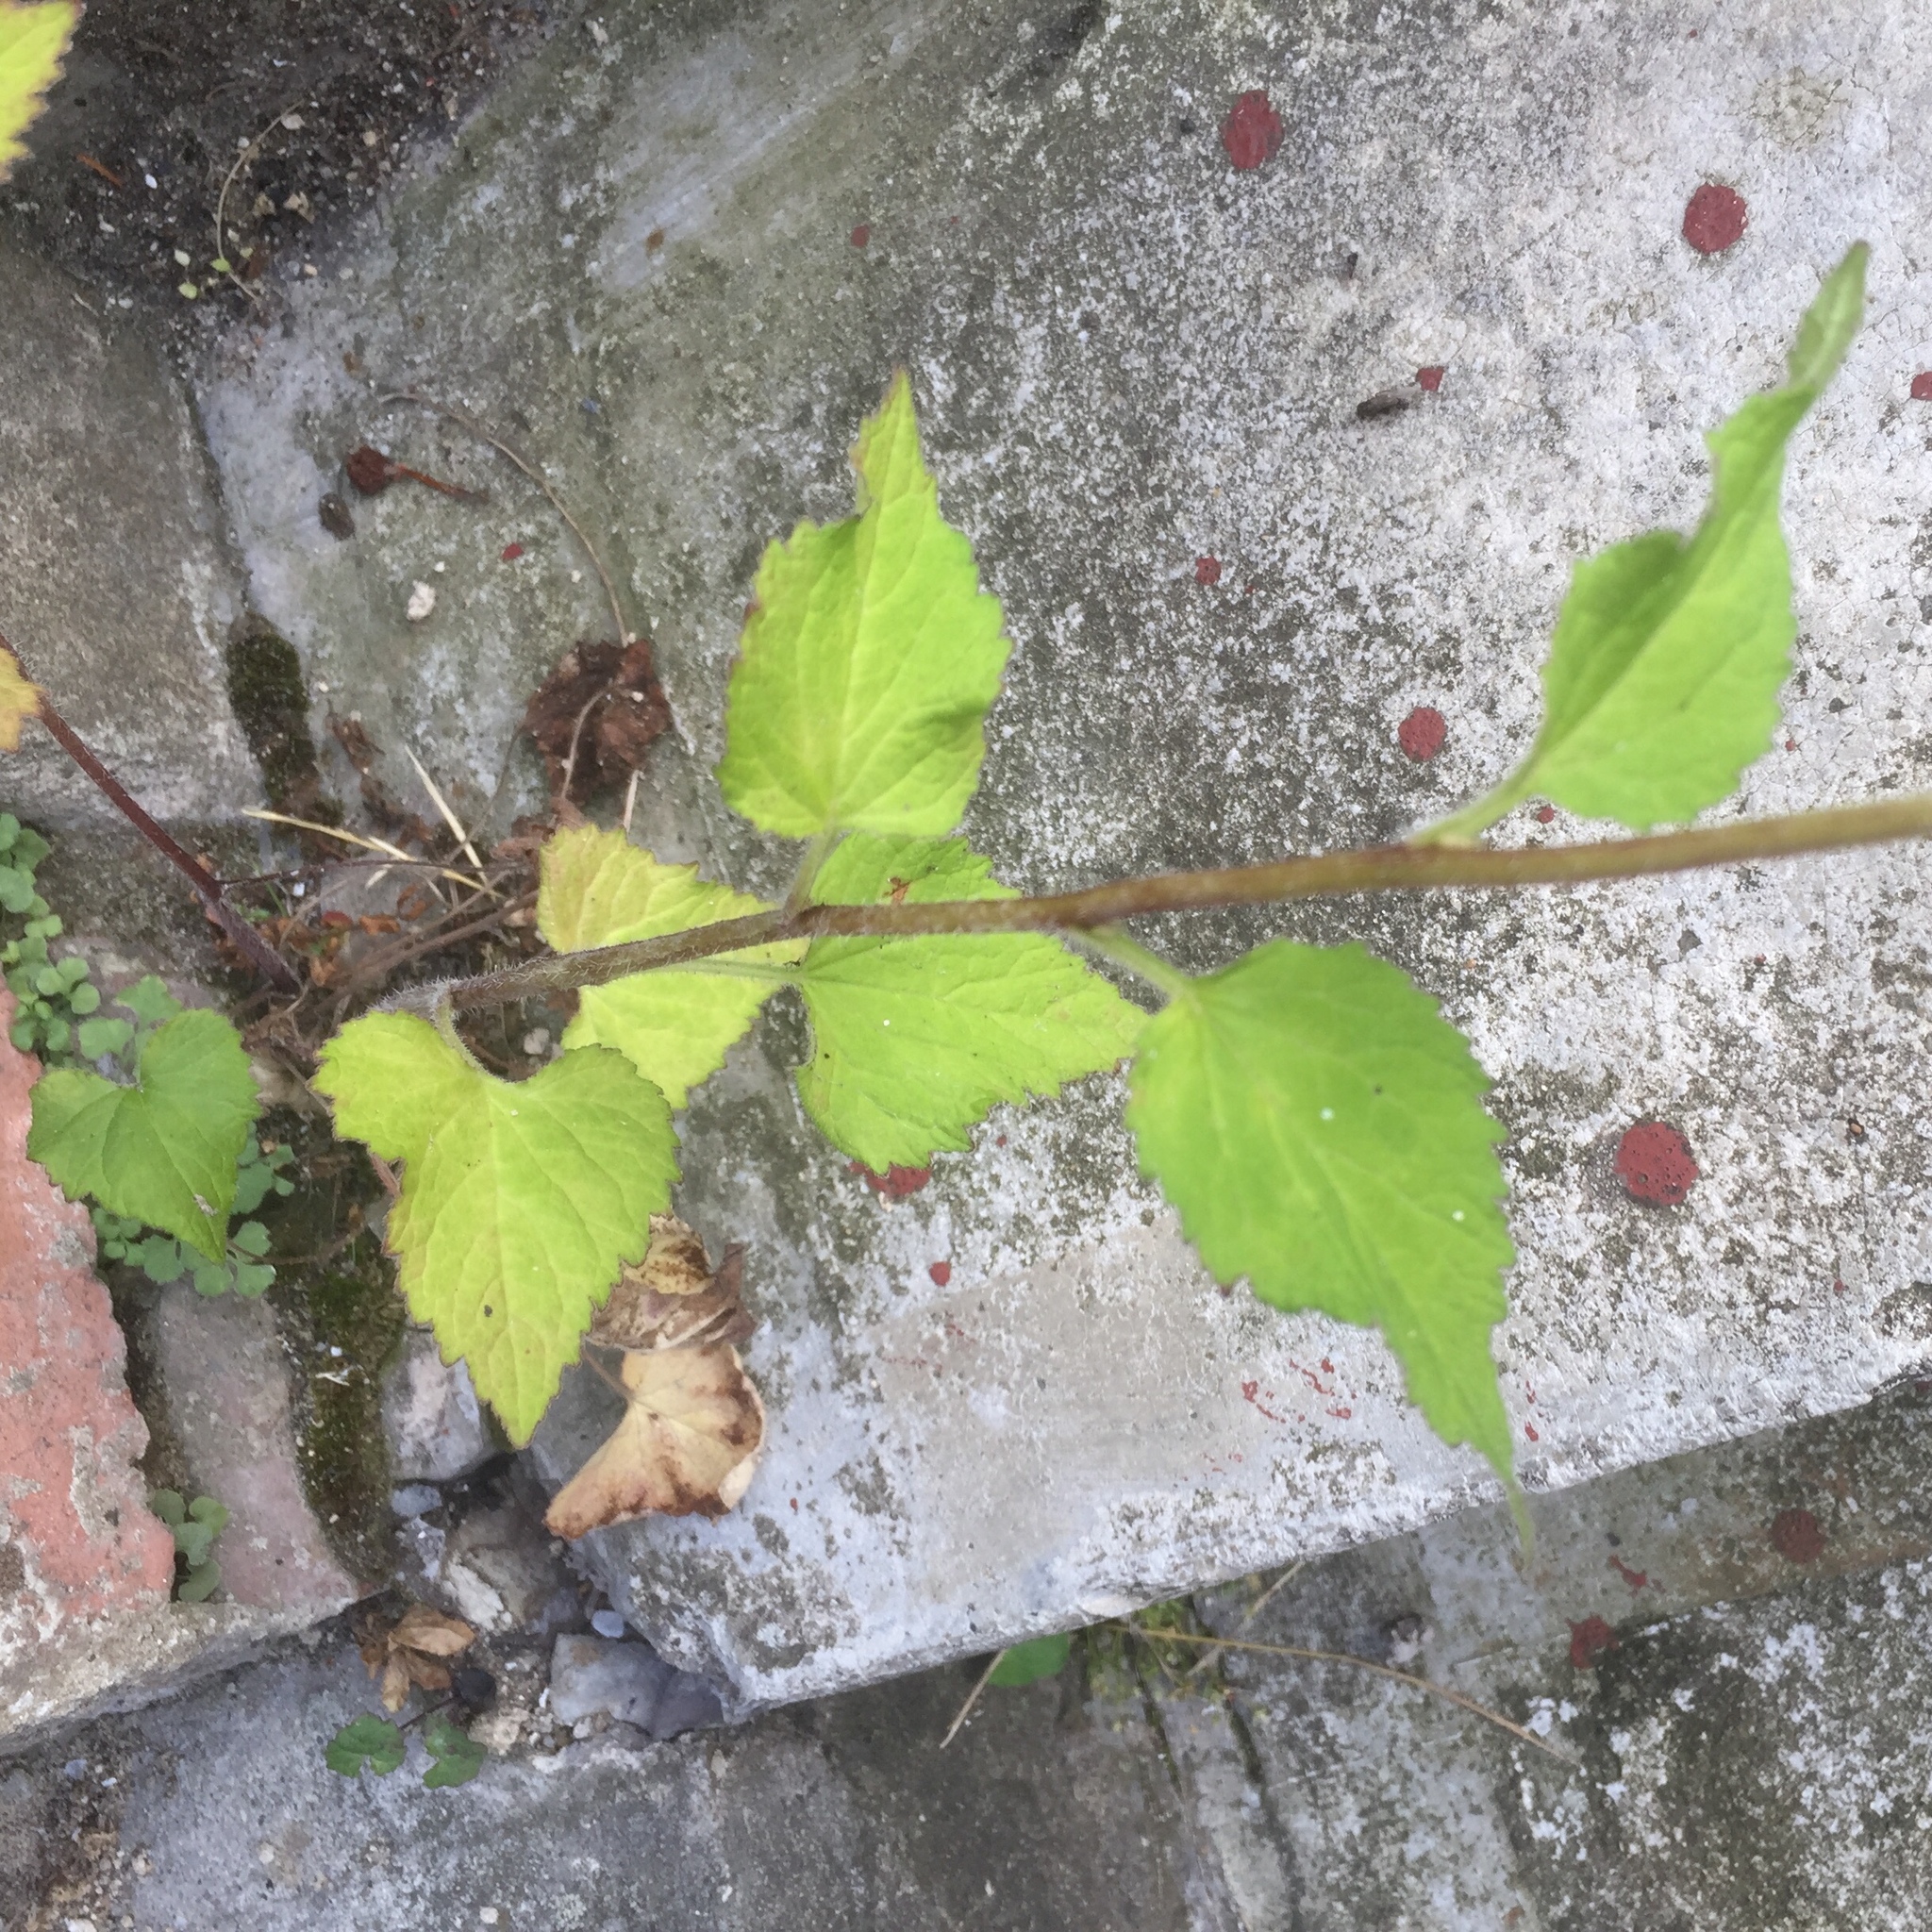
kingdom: Plantae
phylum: Tracheophyta
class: Magnoliopsida
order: Asterales
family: Campanulaceae
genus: Campanula
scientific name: Campanula trachelium
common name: Nettle-leaved bellflower
